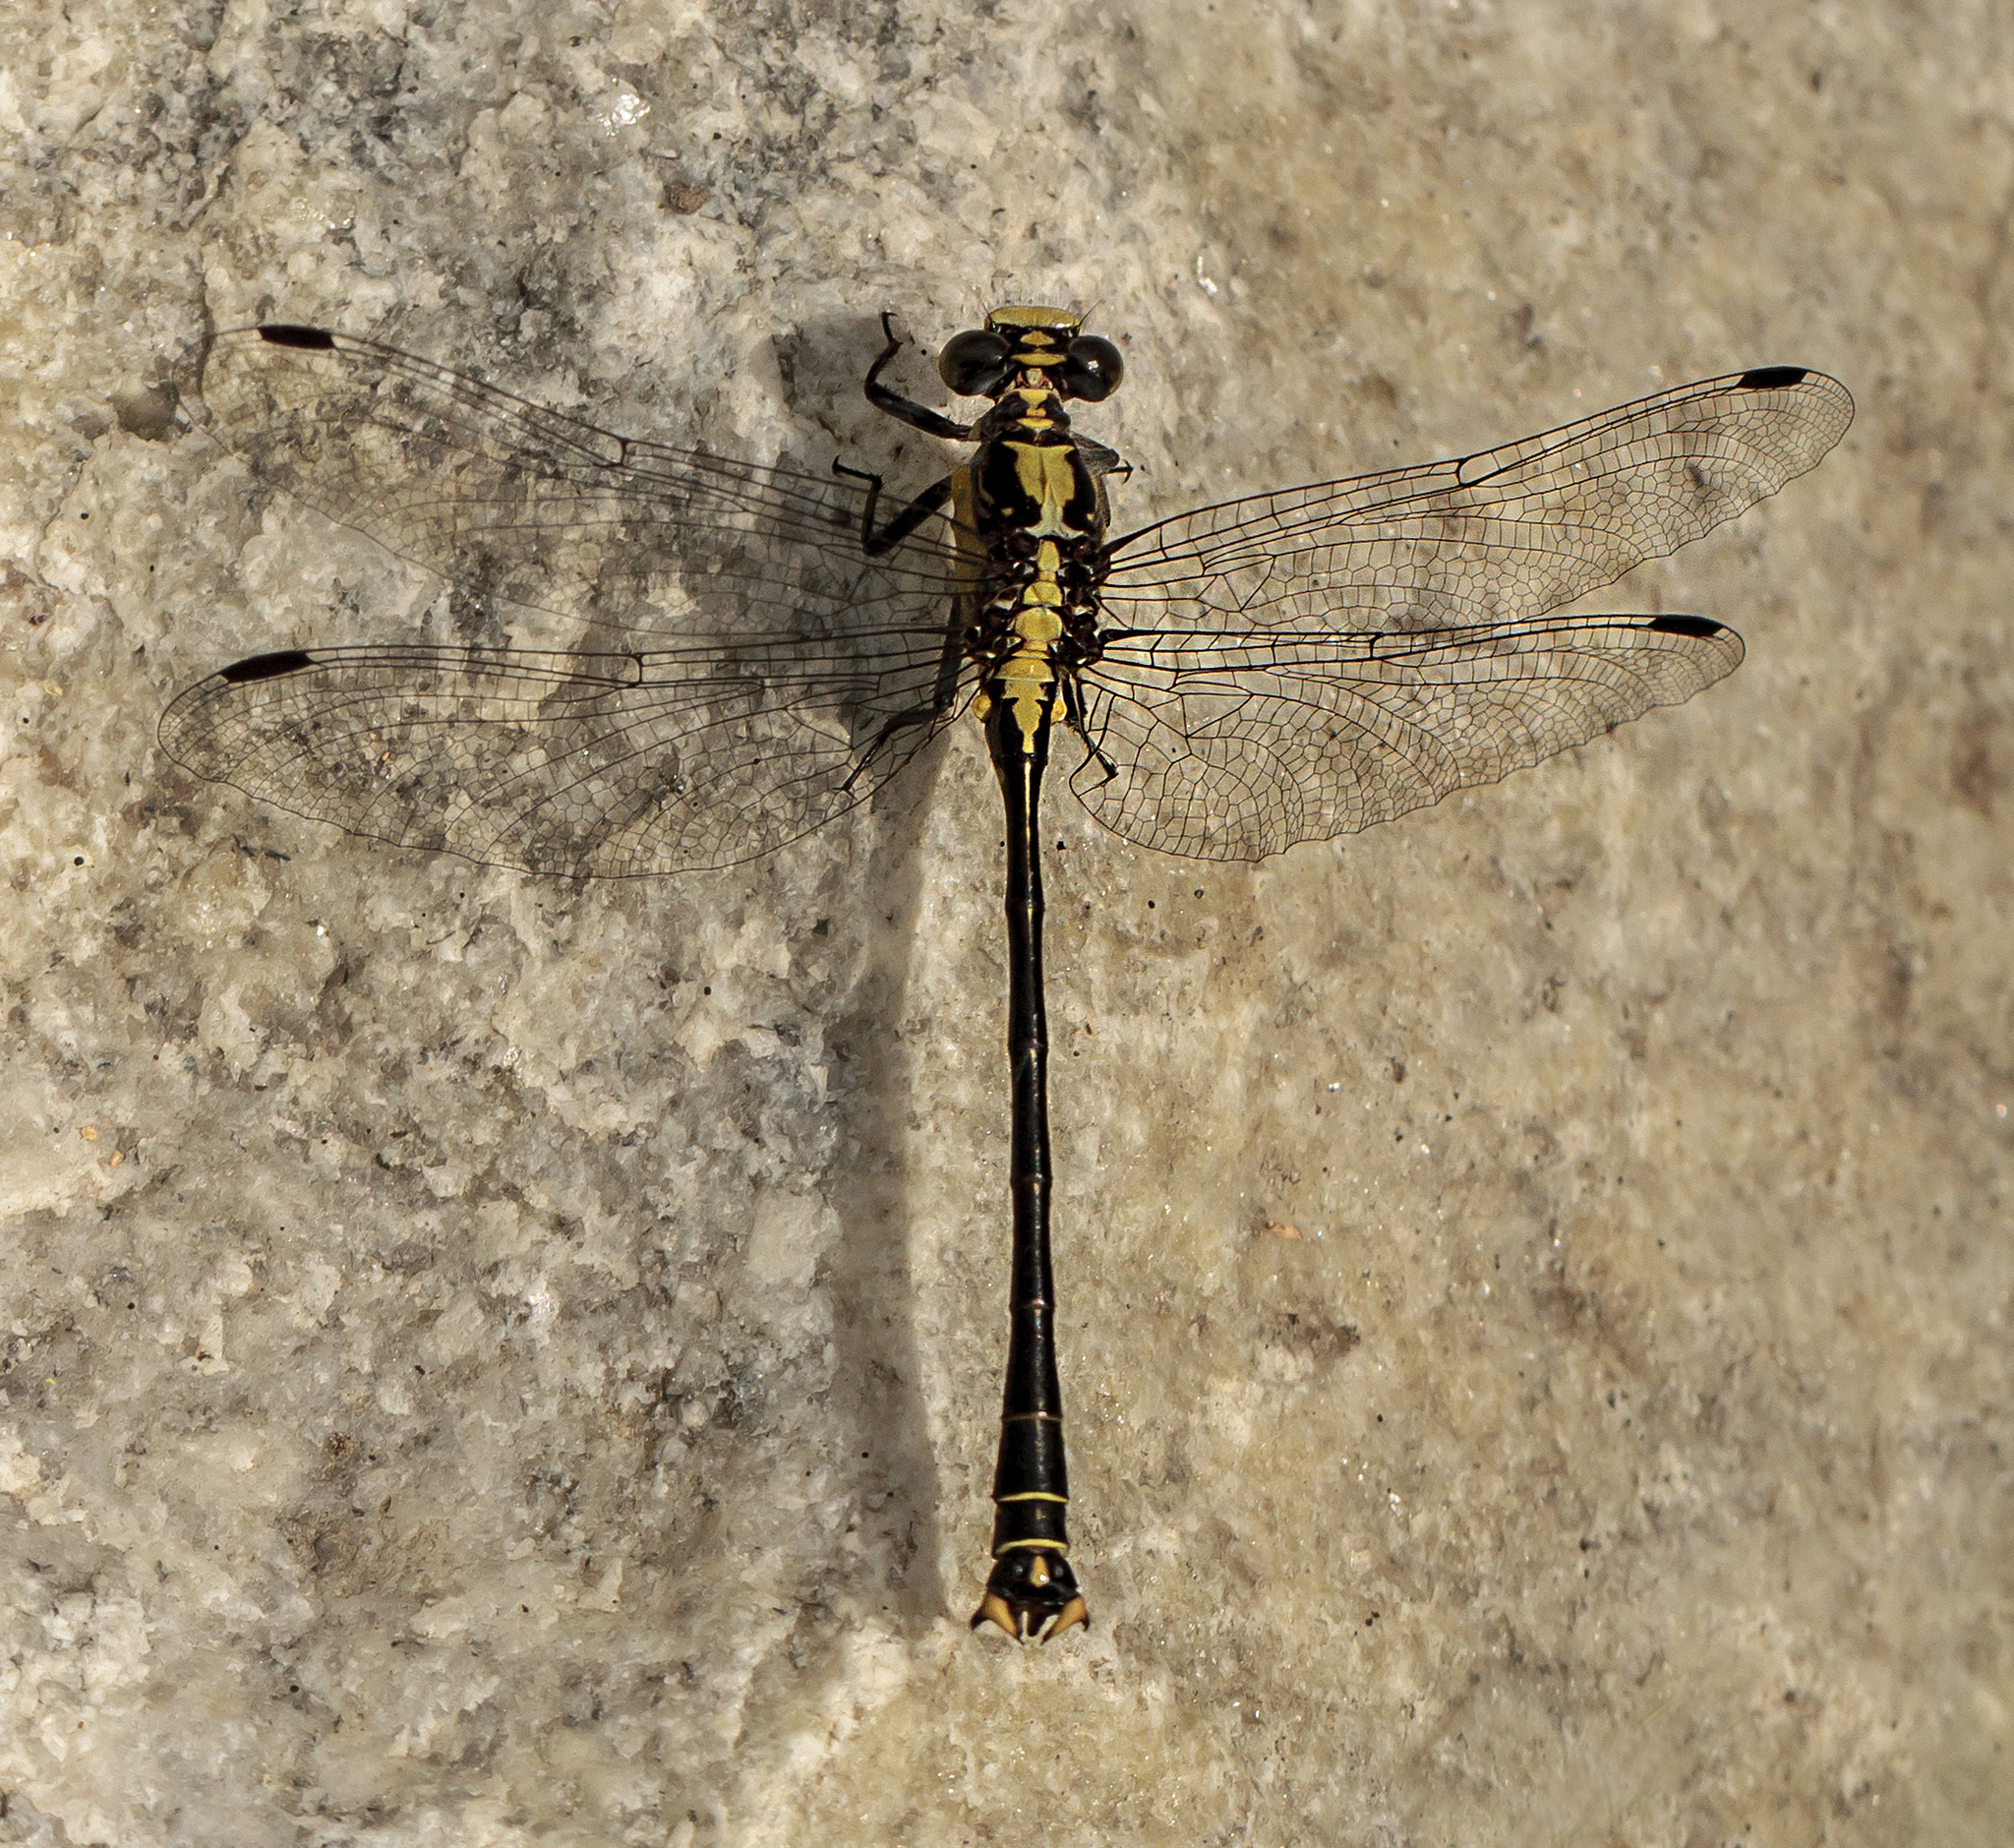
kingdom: Animalia
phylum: Arthropoda
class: Insecta
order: Odonata
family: Gomphidae
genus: Octogomphus
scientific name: Octogomphus specularis
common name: Grappletail
